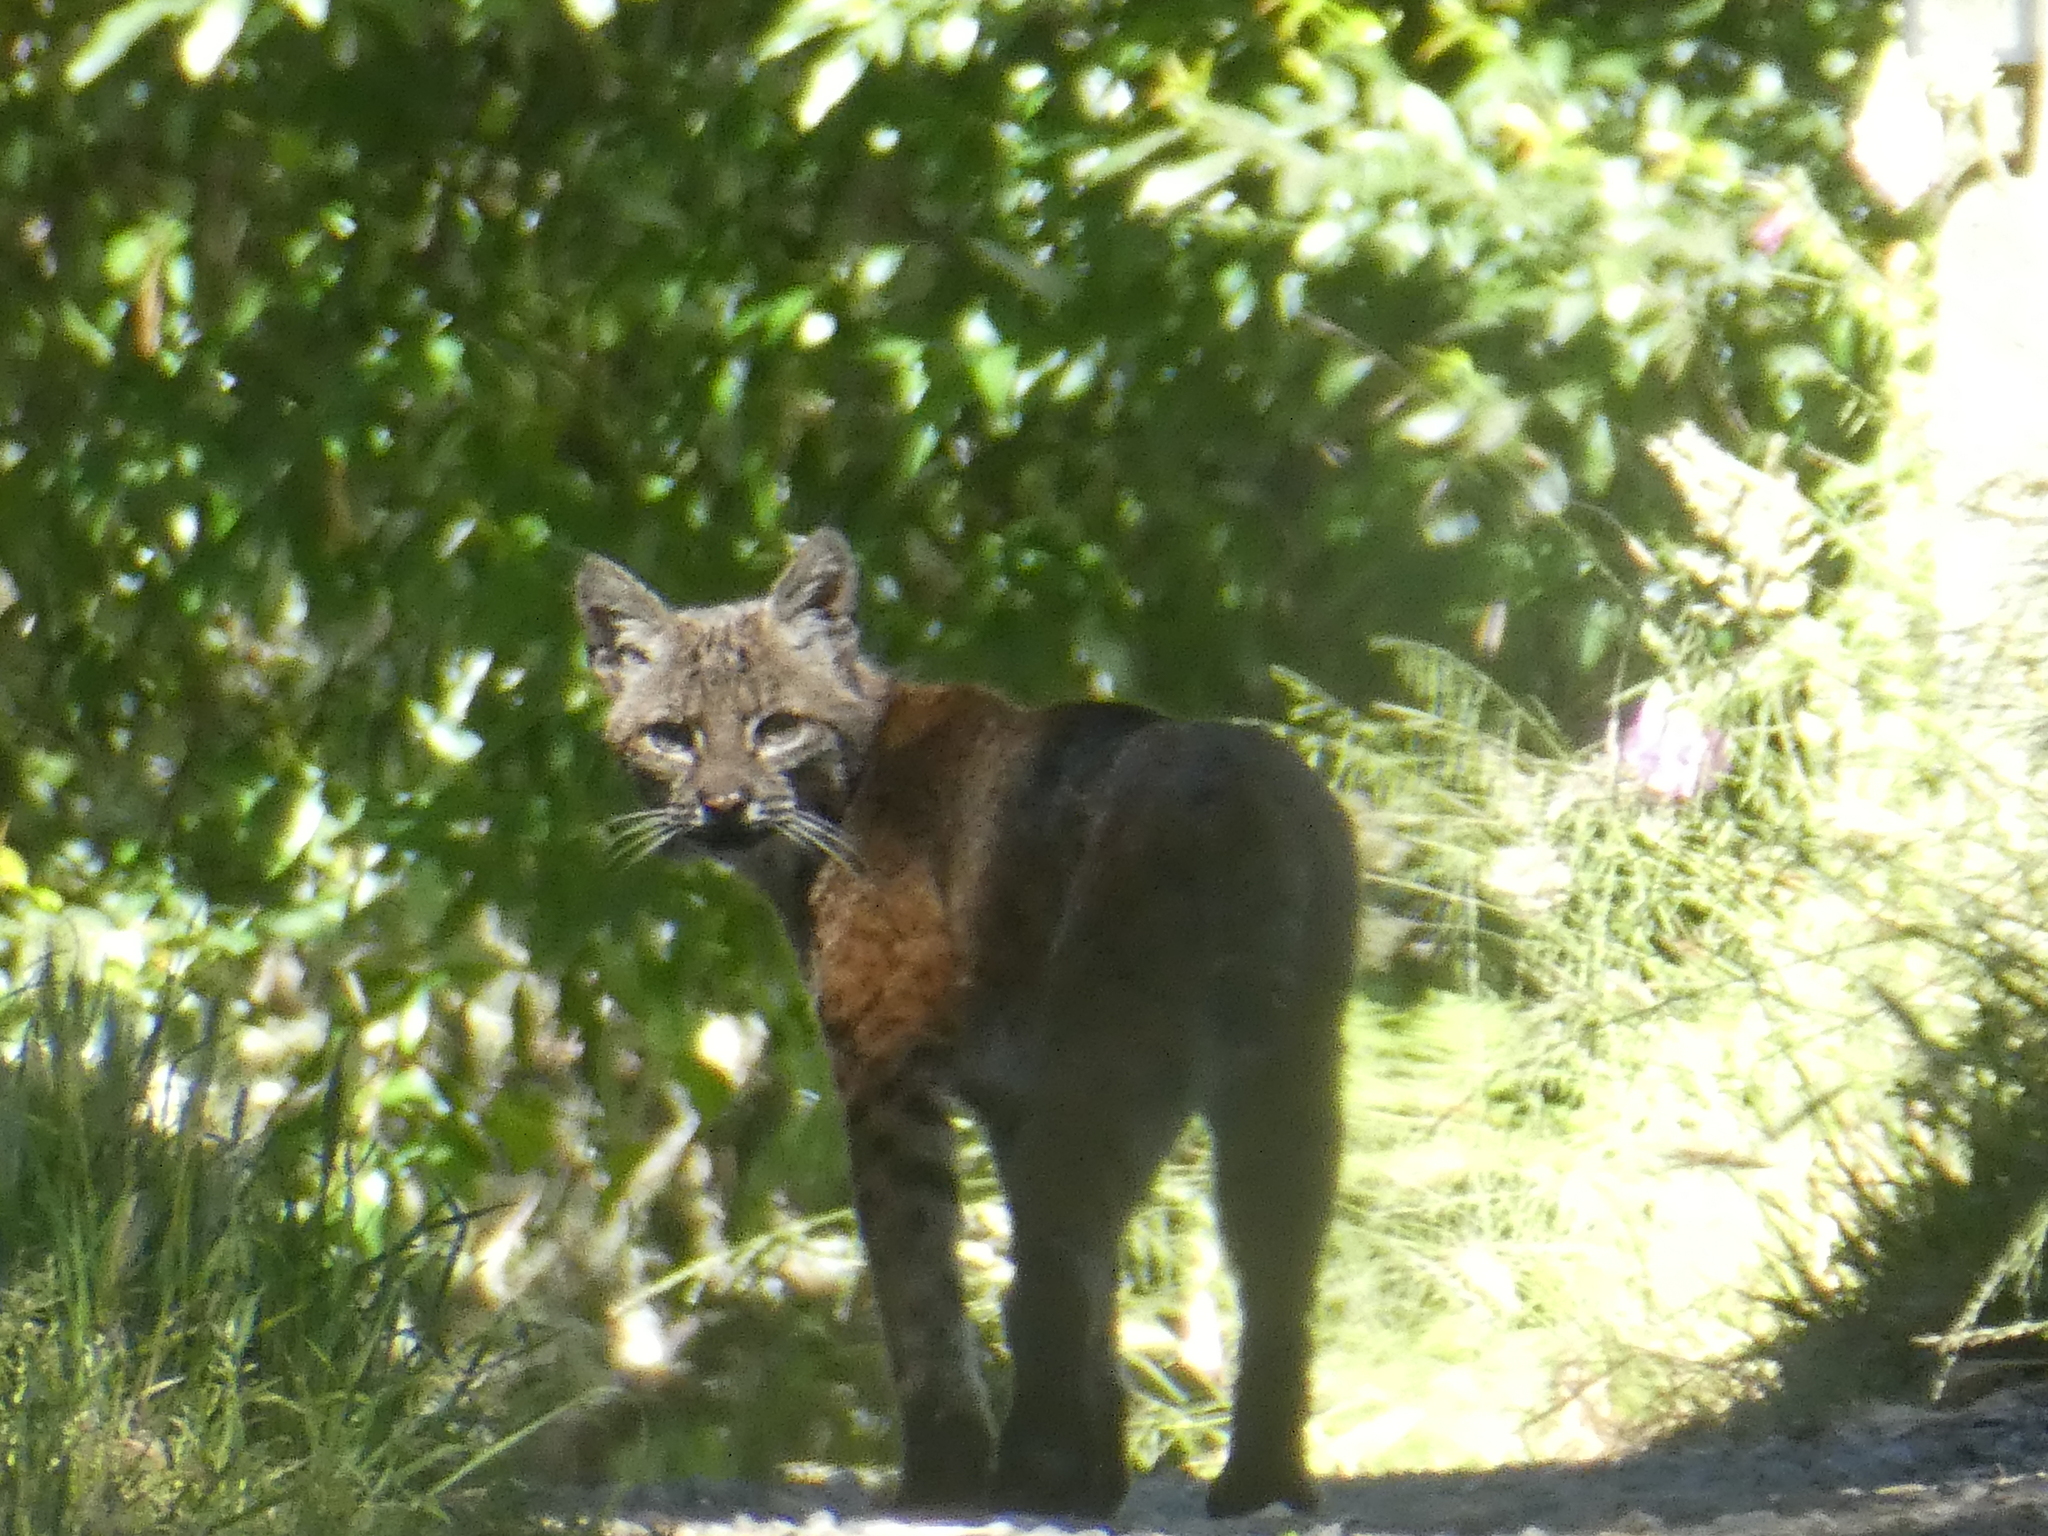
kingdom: Animalia
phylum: Chordata
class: Mammalia
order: Carnivora
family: Felidae
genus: Lynx
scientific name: Lynx rufus
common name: Bobcat
